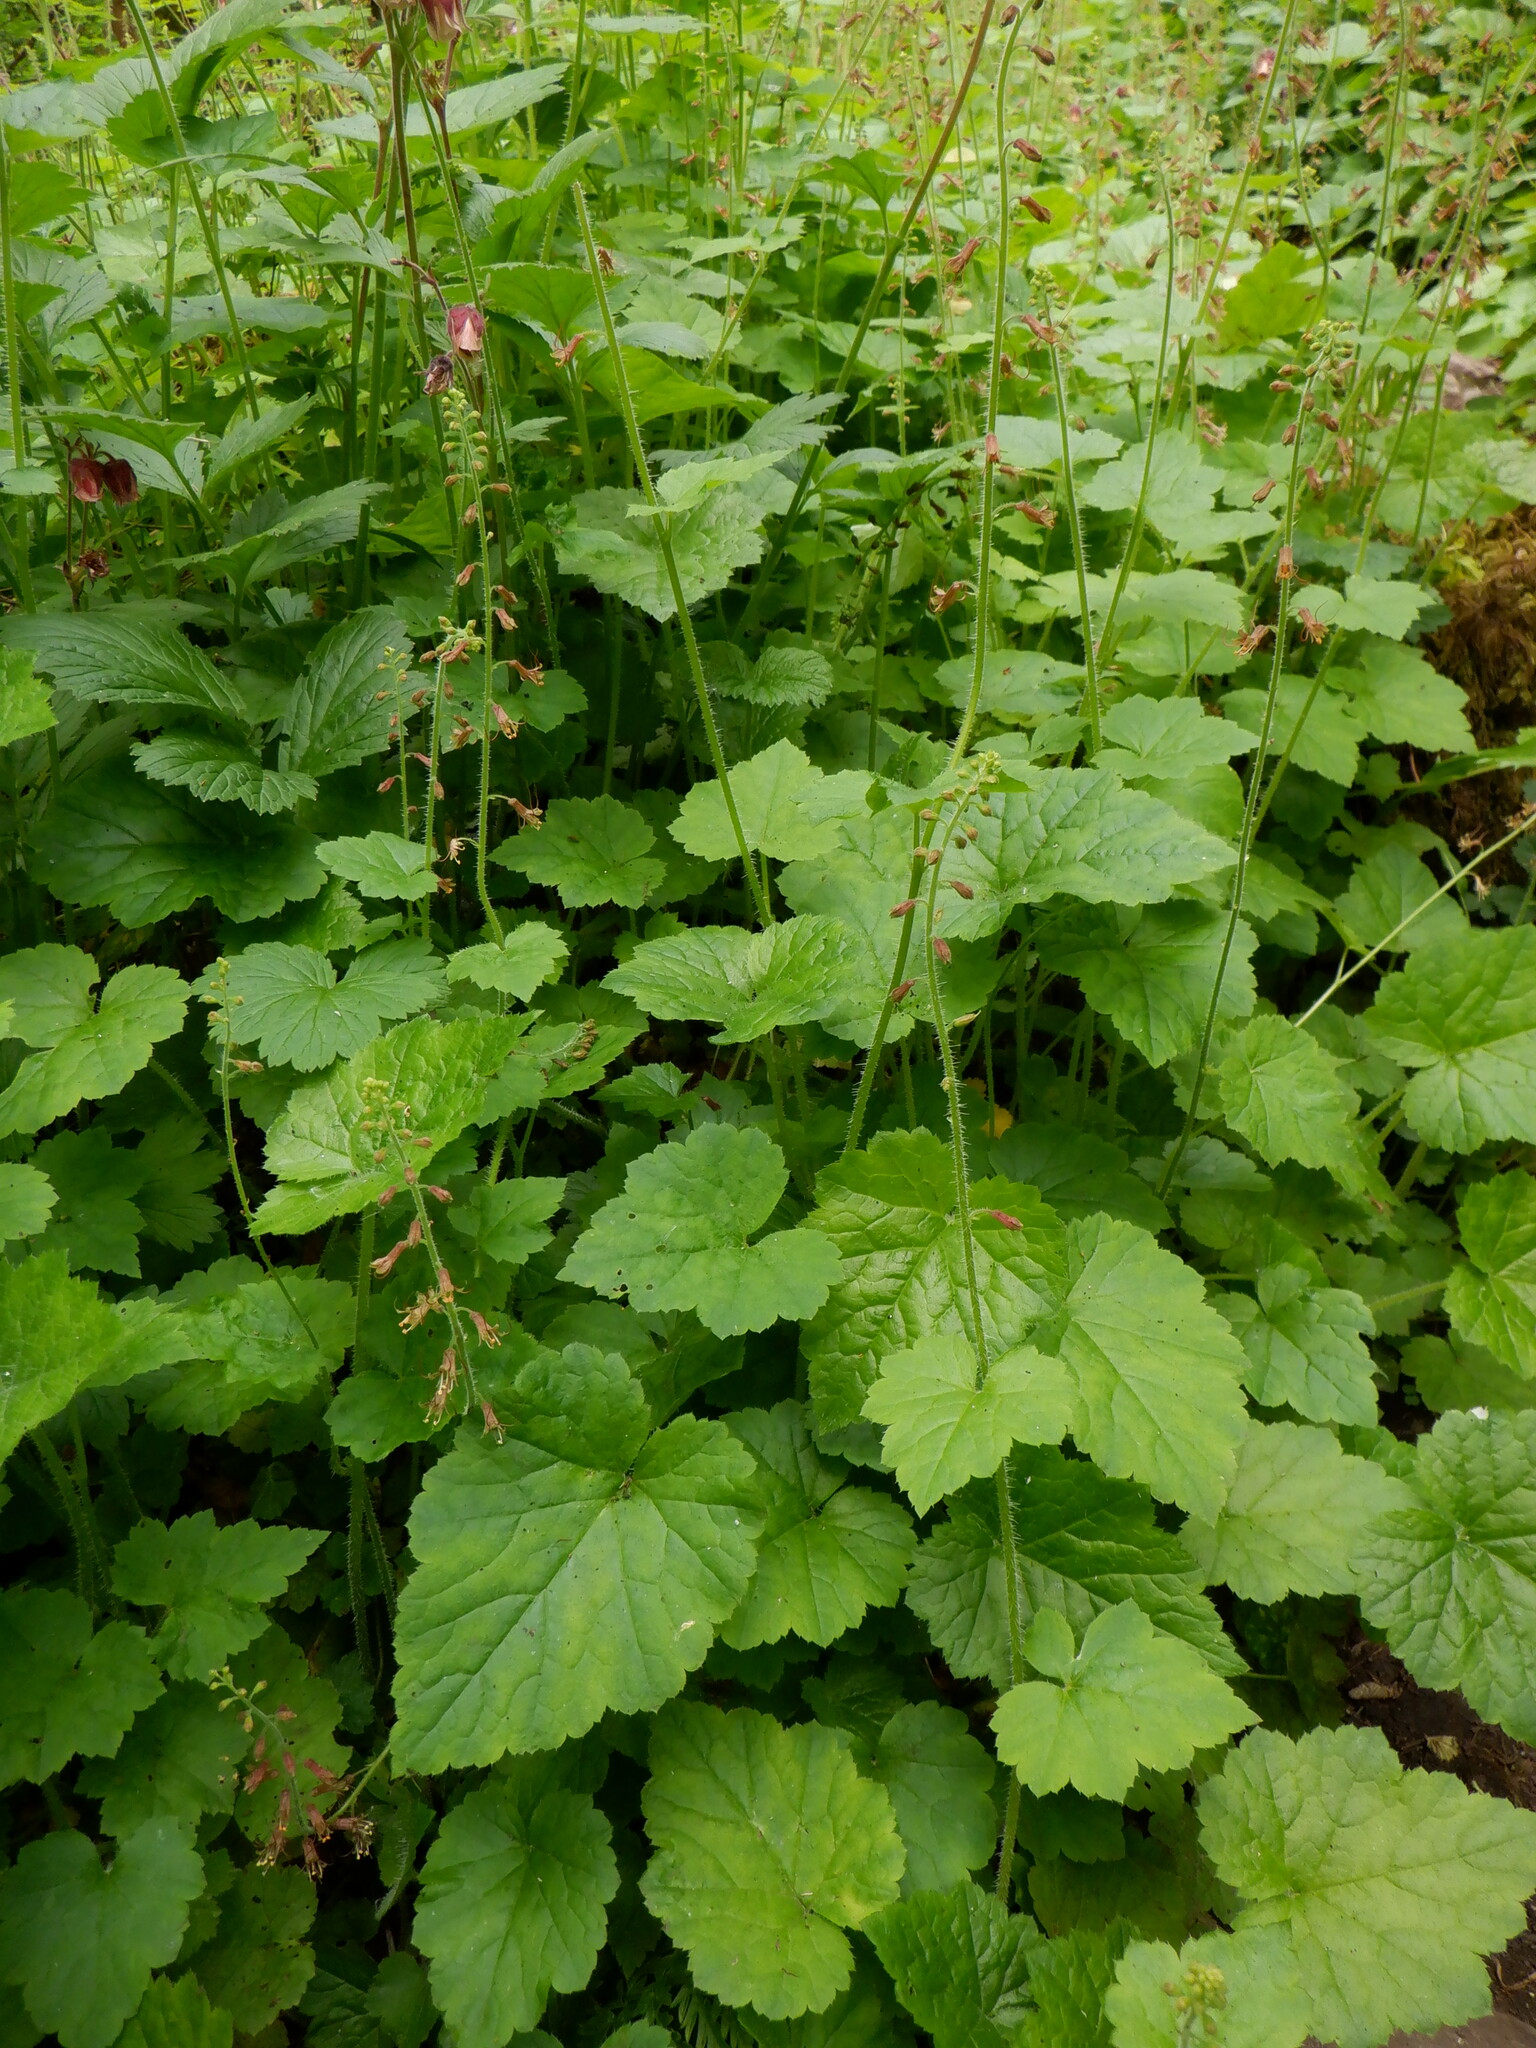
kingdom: Plantae
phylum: Tracheophyta
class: Magnoliopsida
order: Saxifragales
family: Saxifragaceae
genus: Tolmiea
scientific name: Tolmiea menziesii
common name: Pick-a-back-plant
